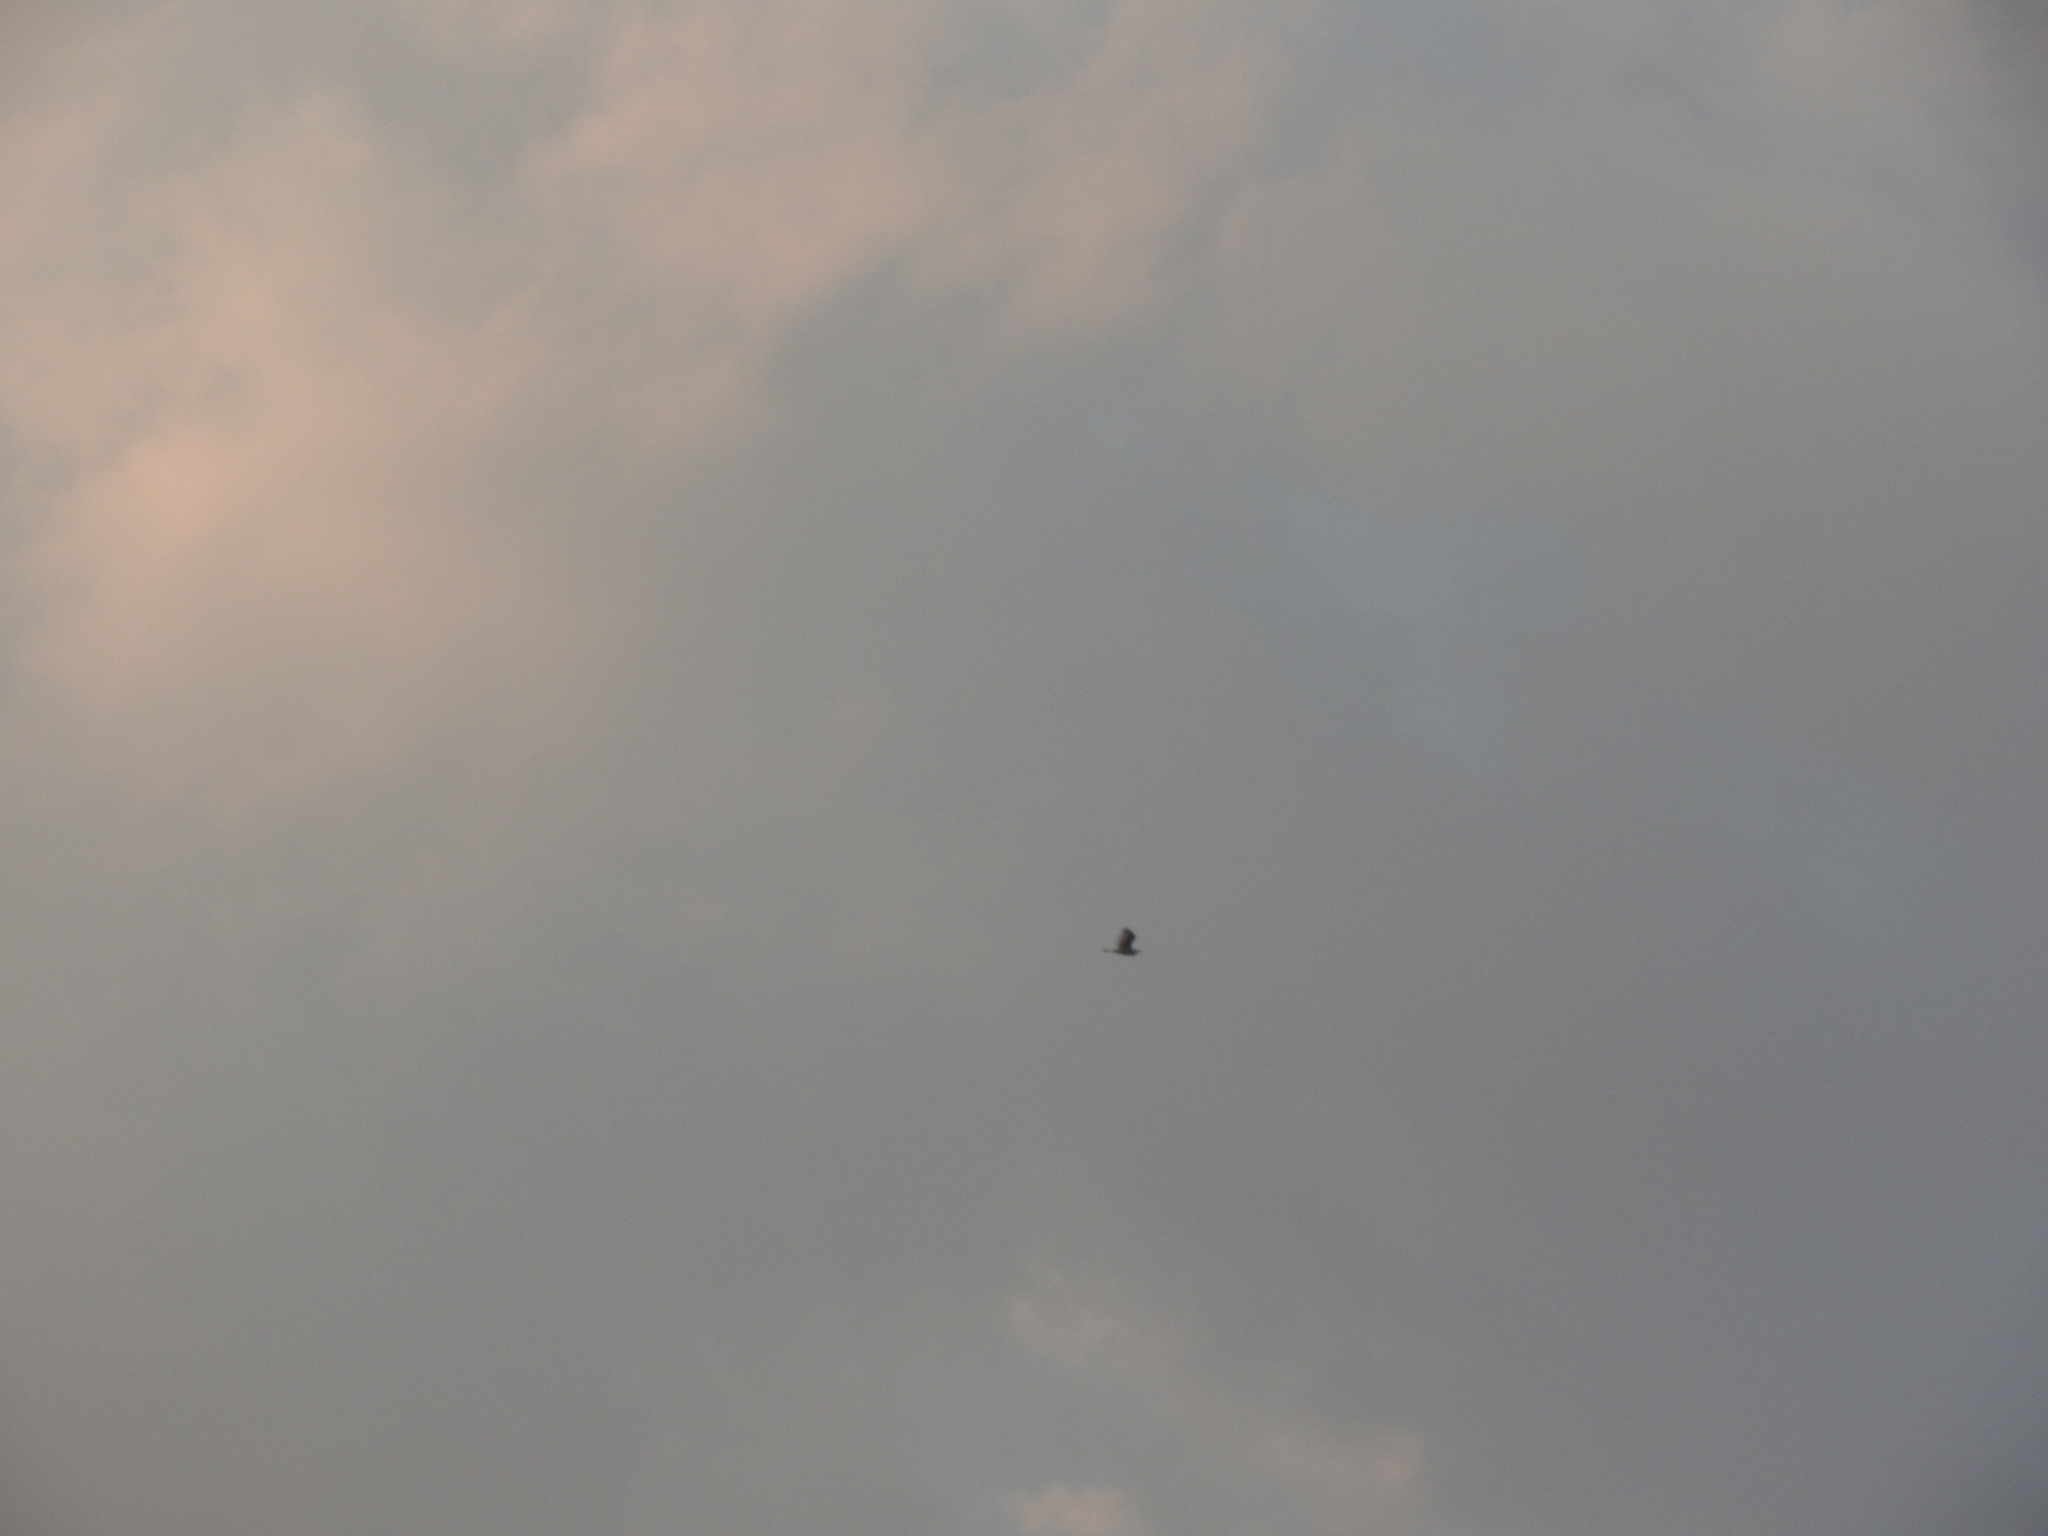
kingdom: Animalia
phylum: Chordata
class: Aves
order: Pelecaniformes
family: Ardeidae
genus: Bubulcus
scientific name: Bubulcus ibis
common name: Cattle egret
